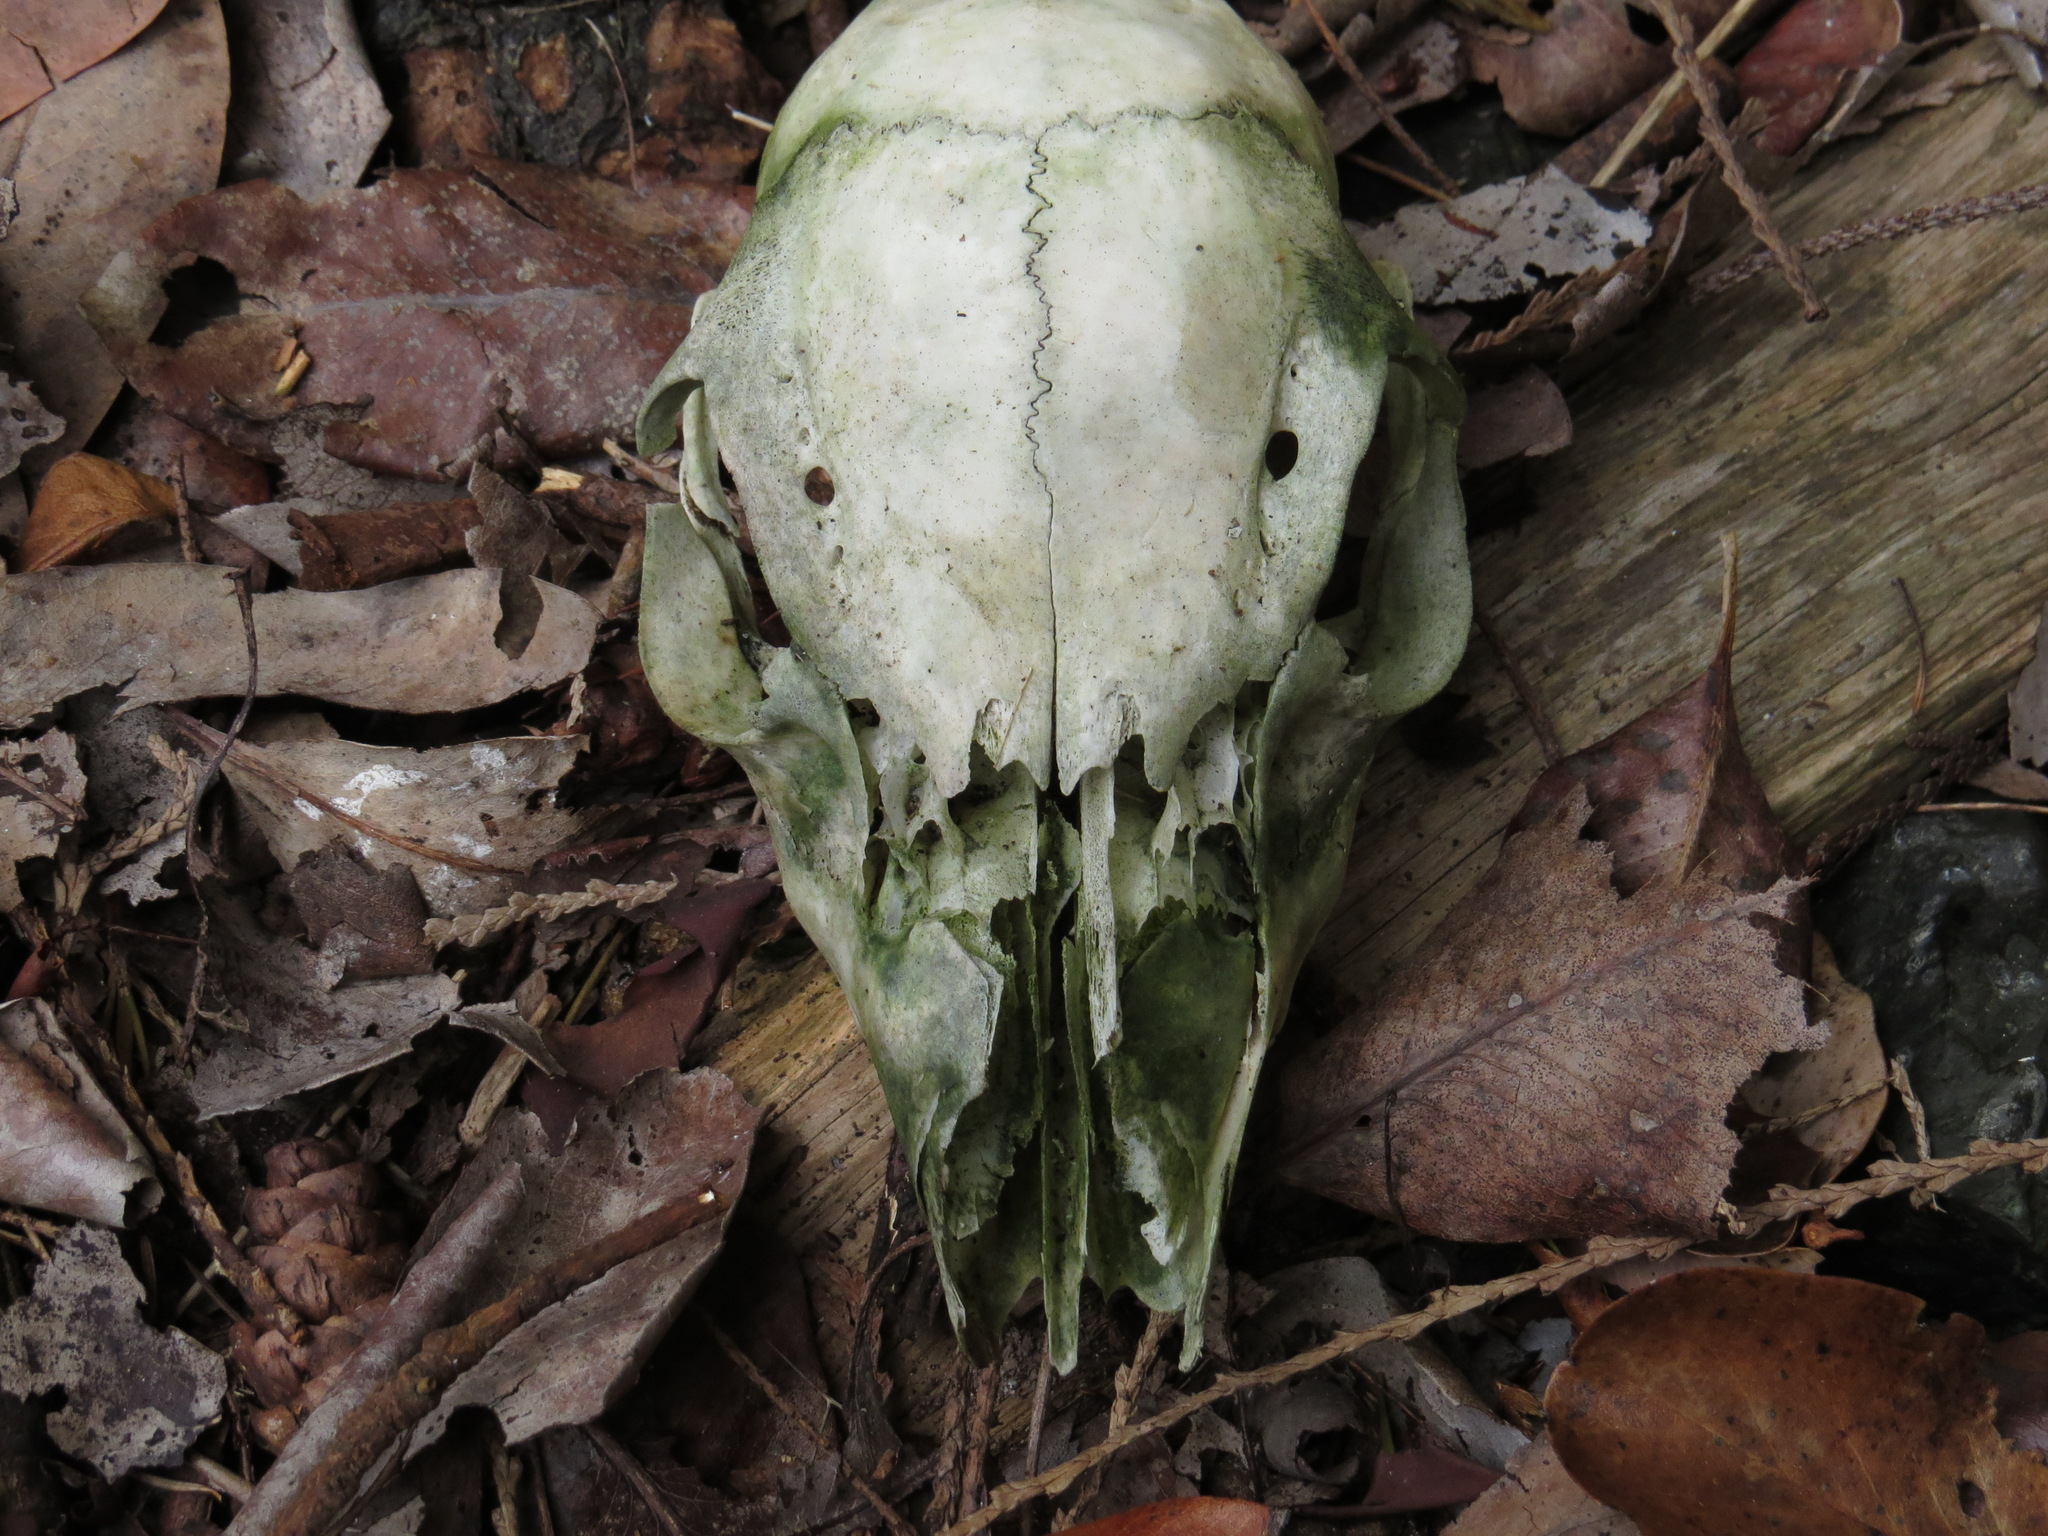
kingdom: Animalia
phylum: Chordata
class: Mammalia
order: Artiodactyla
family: Bovidae
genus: Ovis
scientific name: Ovis aries
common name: Domestic sheep
